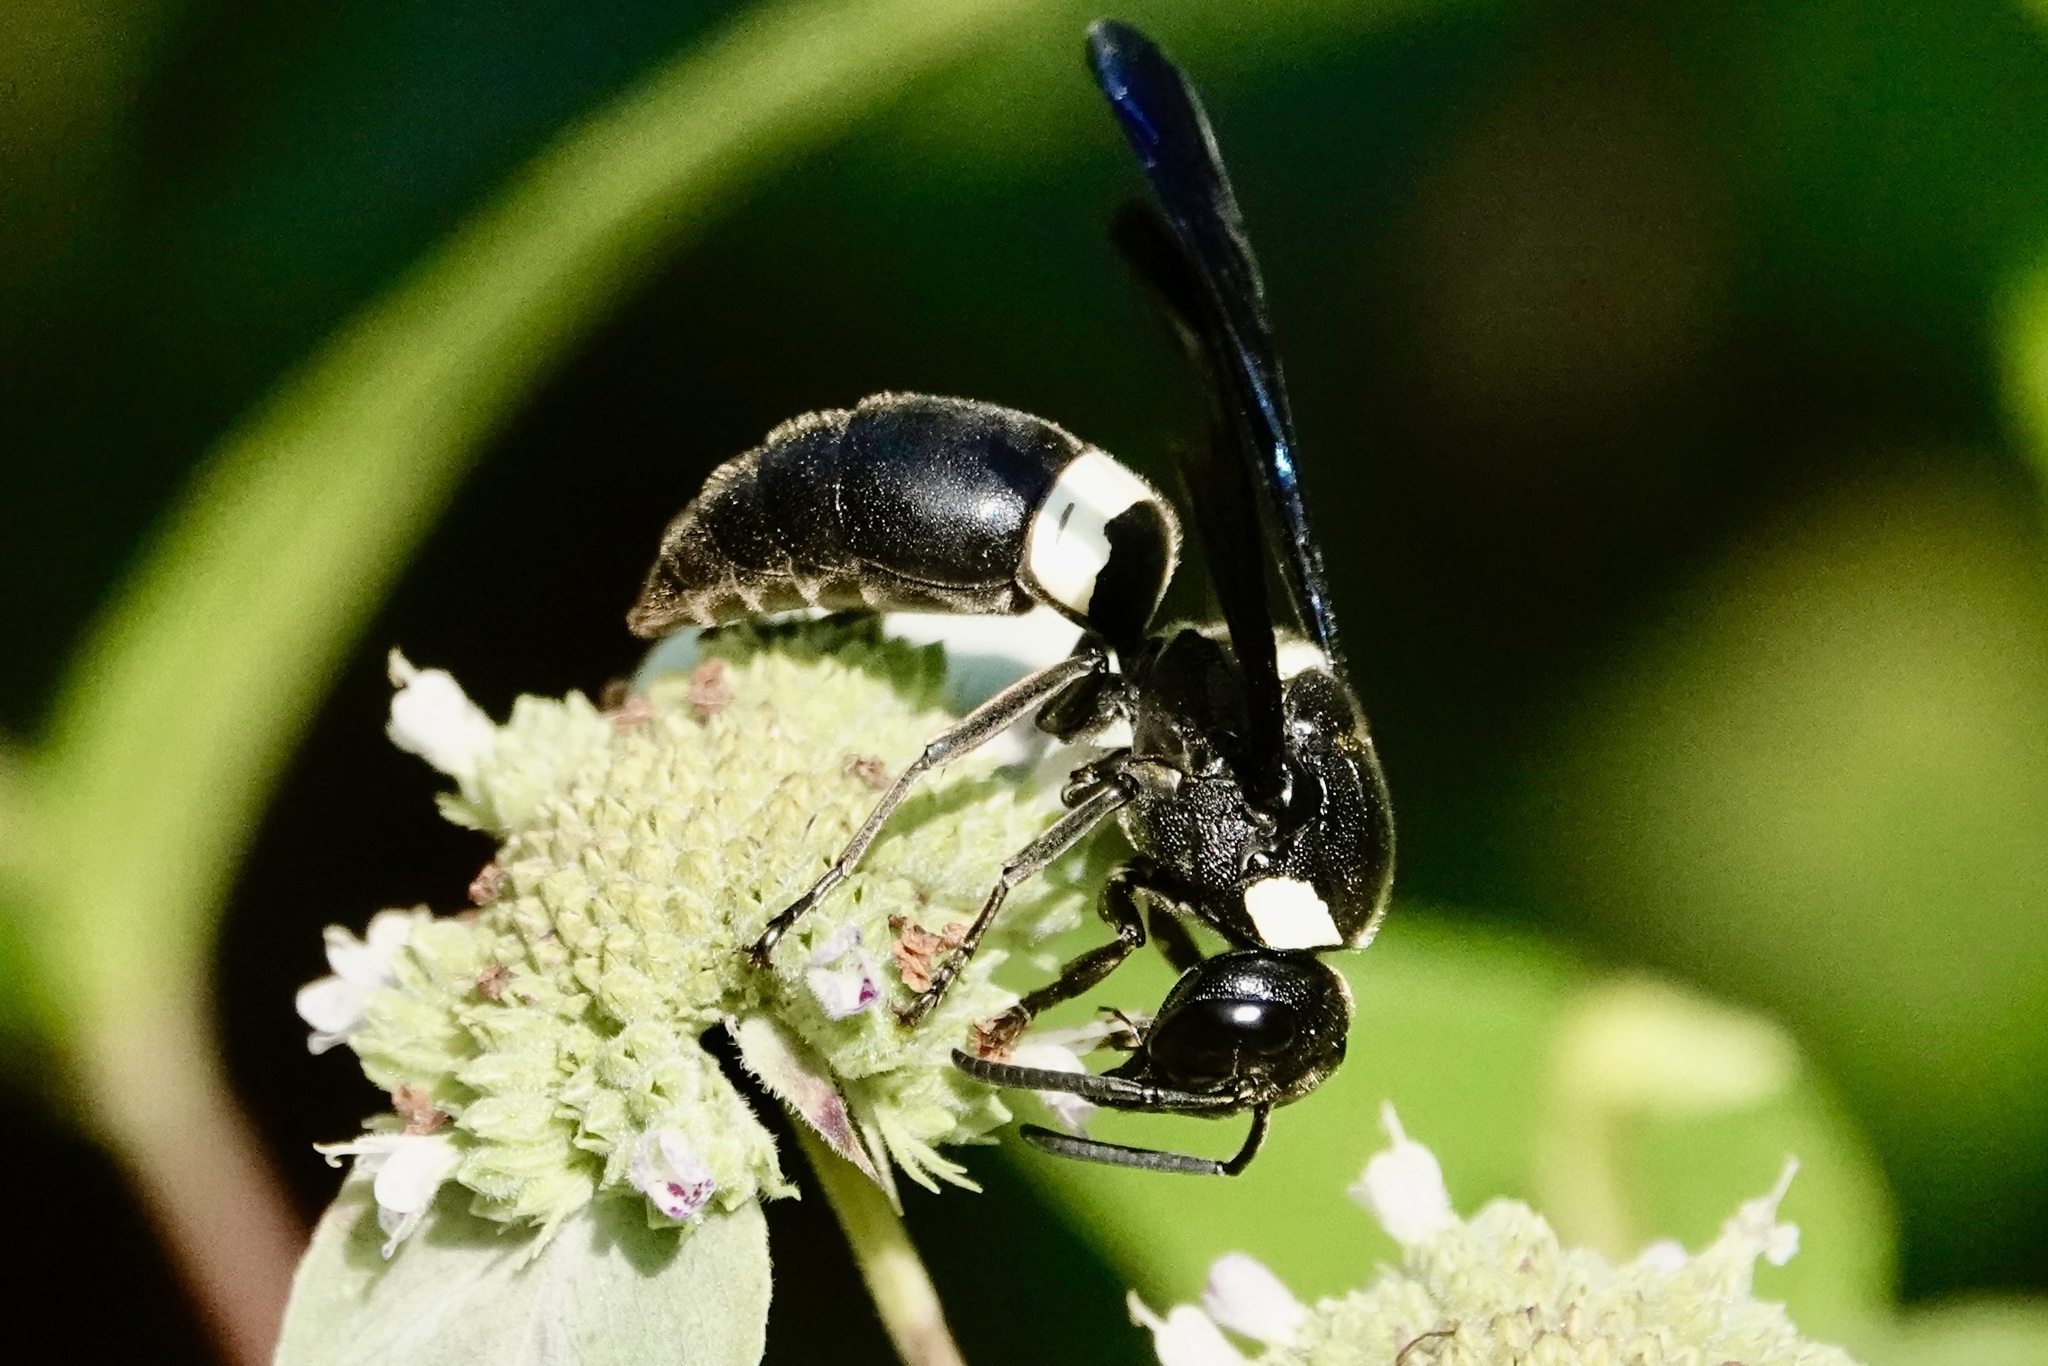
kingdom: Animalia
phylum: Arthropoda
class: Insecta
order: Hymenoptera
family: Eumenidae
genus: Monobia
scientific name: Monobia quadridens
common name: Four-toothed mason wasp
